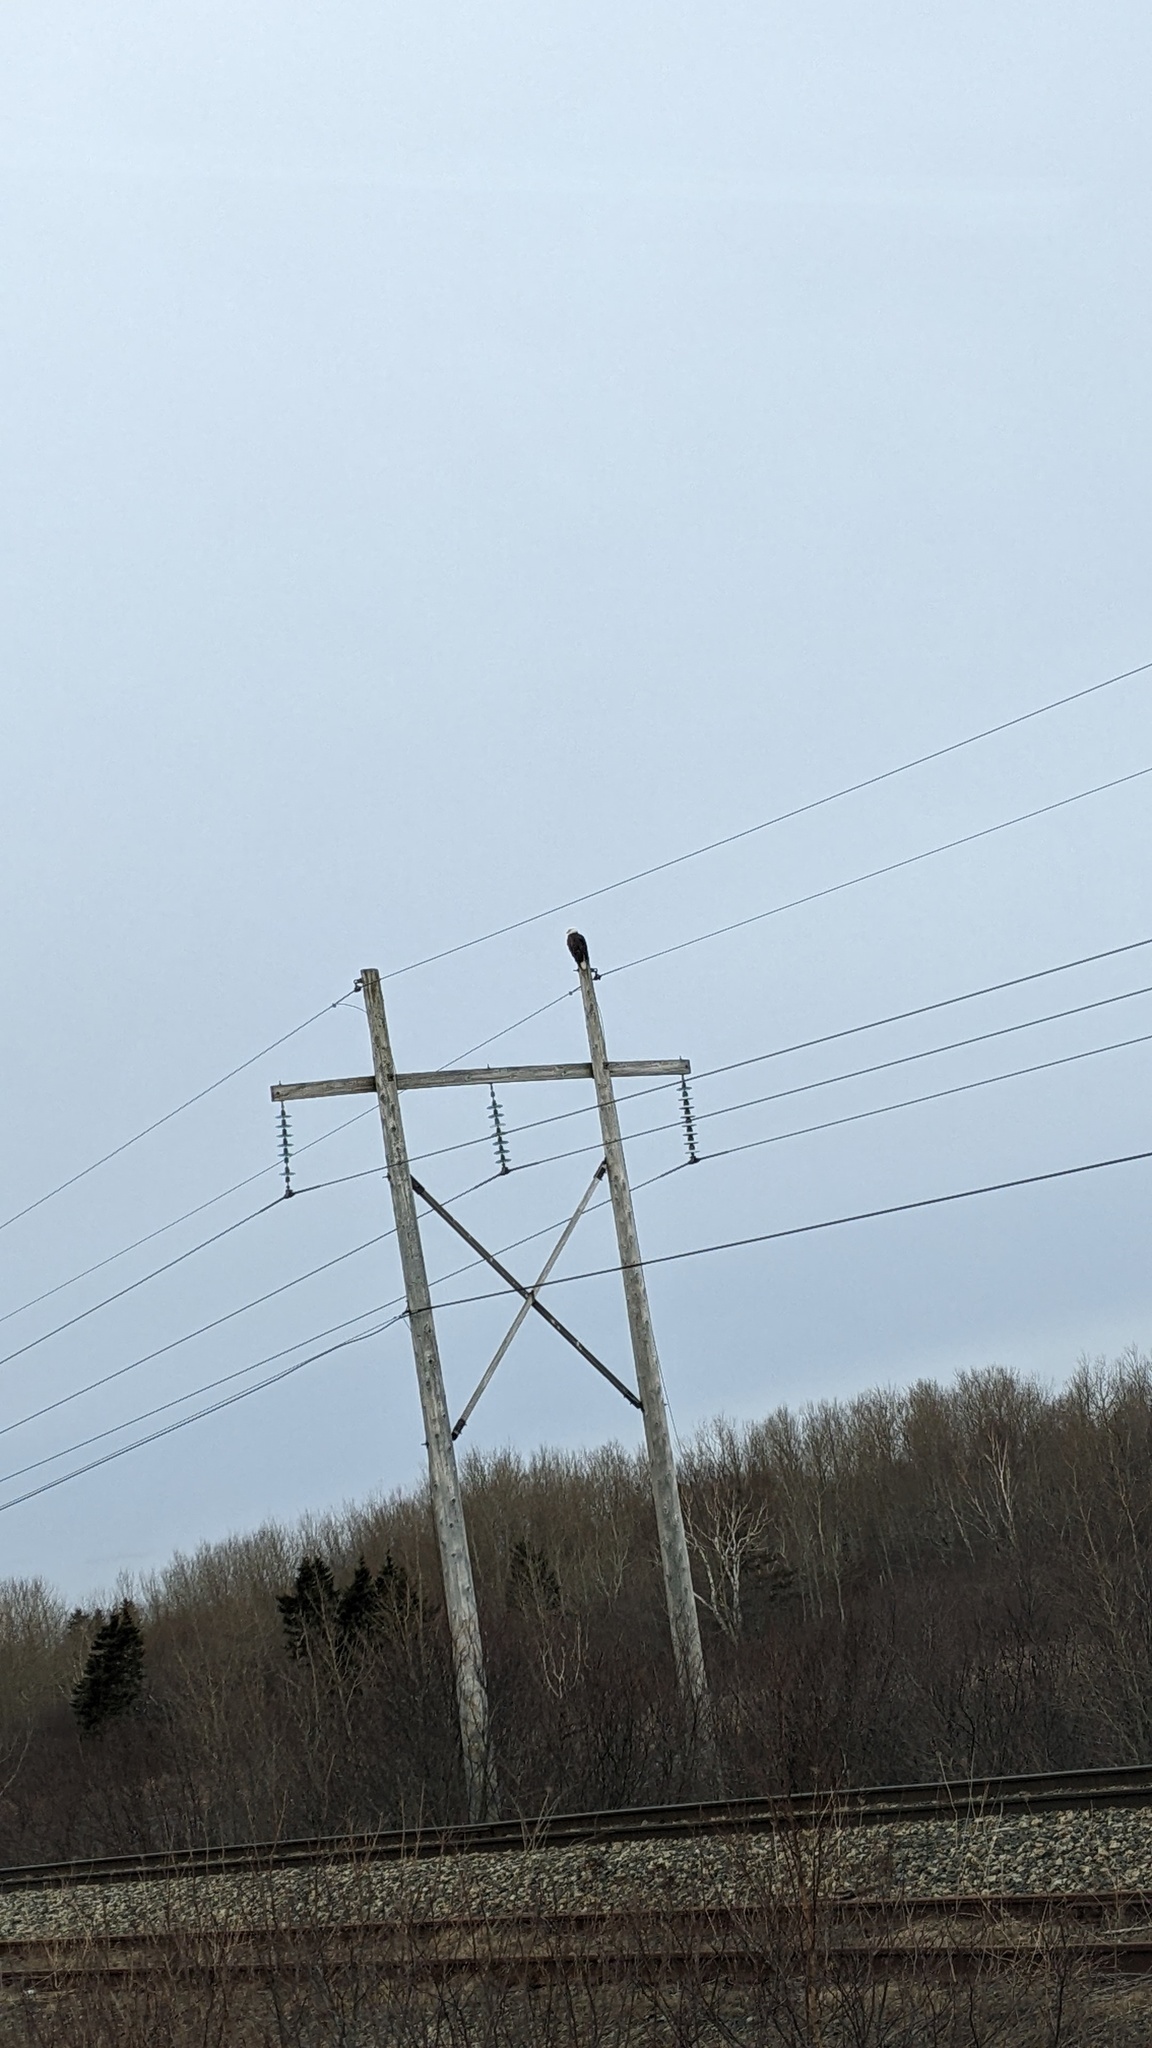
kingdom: Animalia
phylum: Chordata
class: Aves
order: Accipitriformes
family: Accipitridae
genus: Haliaeetus
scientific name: Haliaeetus leucocephalus
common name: Bald eagle
